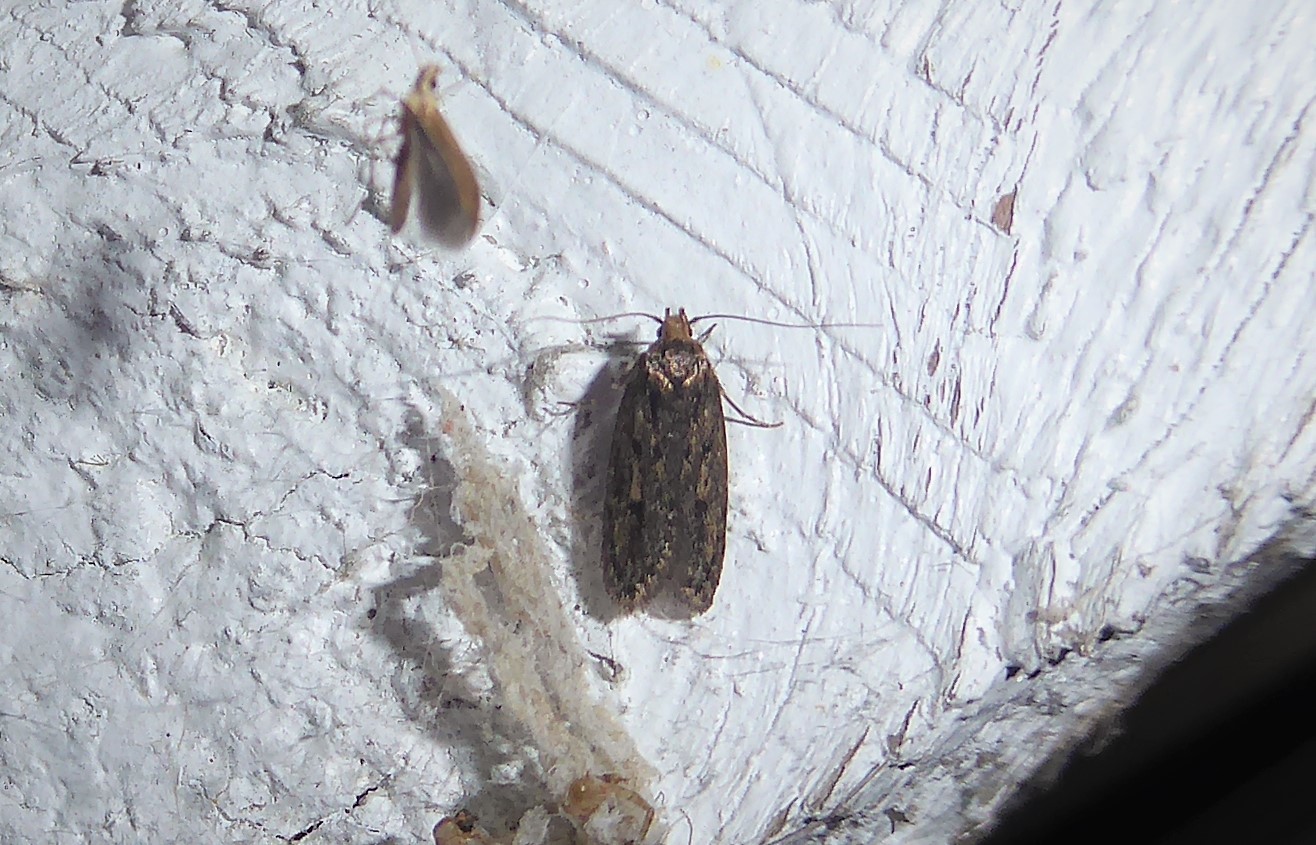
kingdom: Animalia
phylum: Arthropoda
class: Insecta
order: Lepidoptera
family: Oecophoridae
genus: Hofmannophila
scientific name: Hofmannophila pseudospretella
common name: Brown house moth
